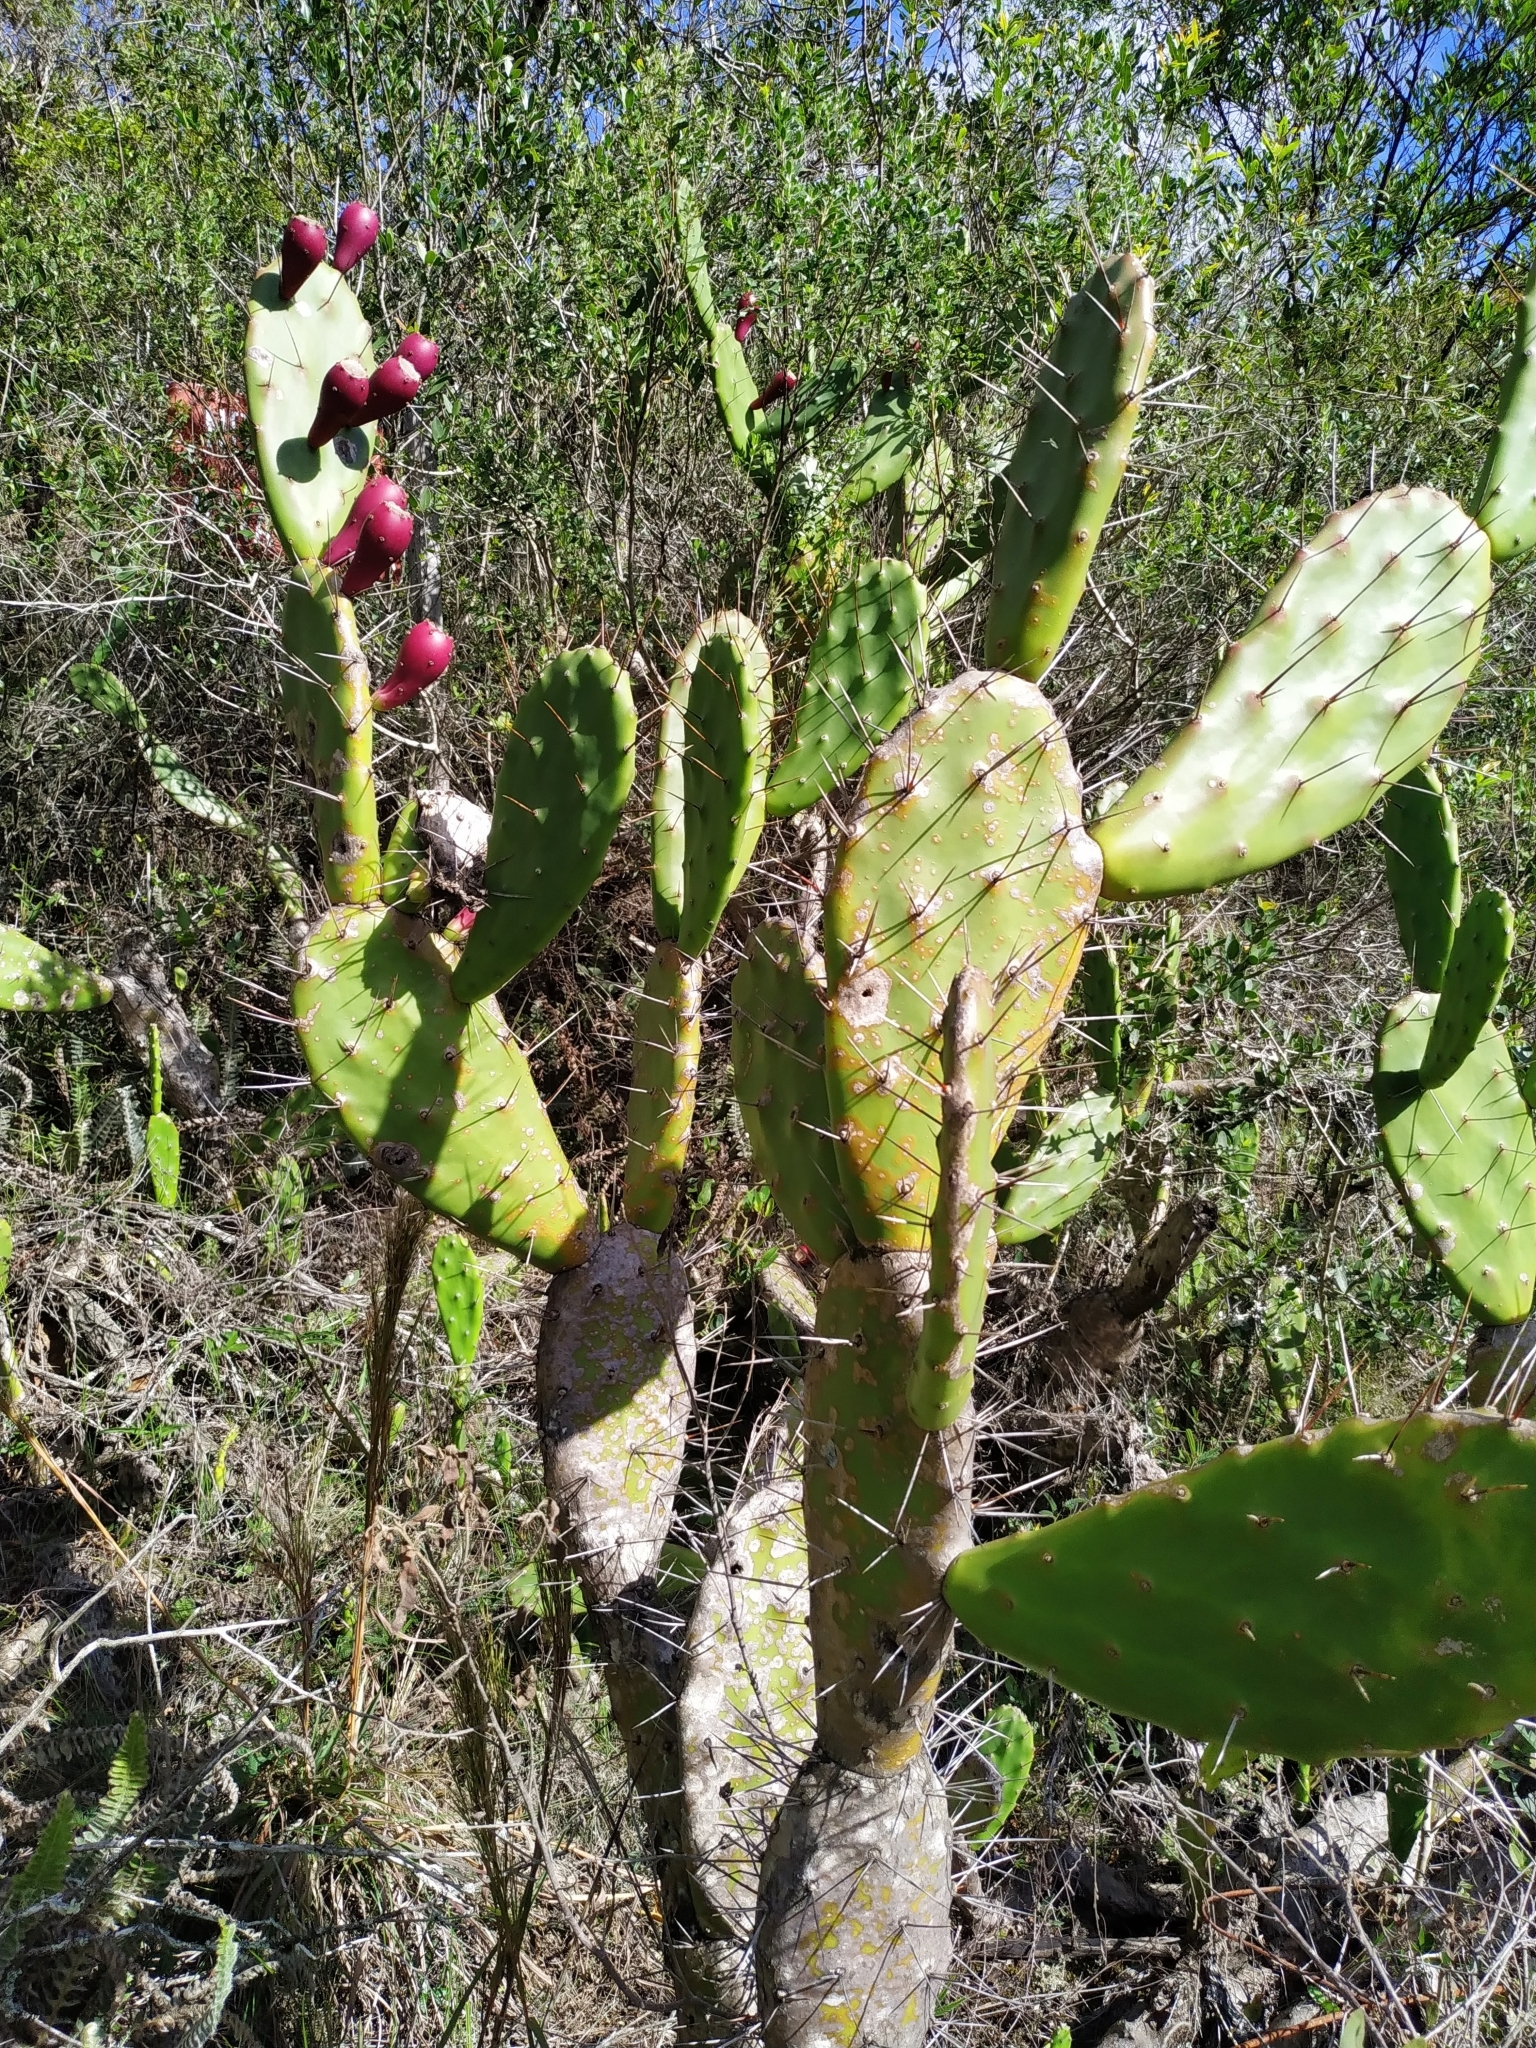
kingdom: Plantae
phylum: Tracheophyta
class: Magnoliopsida
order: Caryophyllales
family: Cactaceae
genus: Opuntia
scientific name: Opuntia elata
